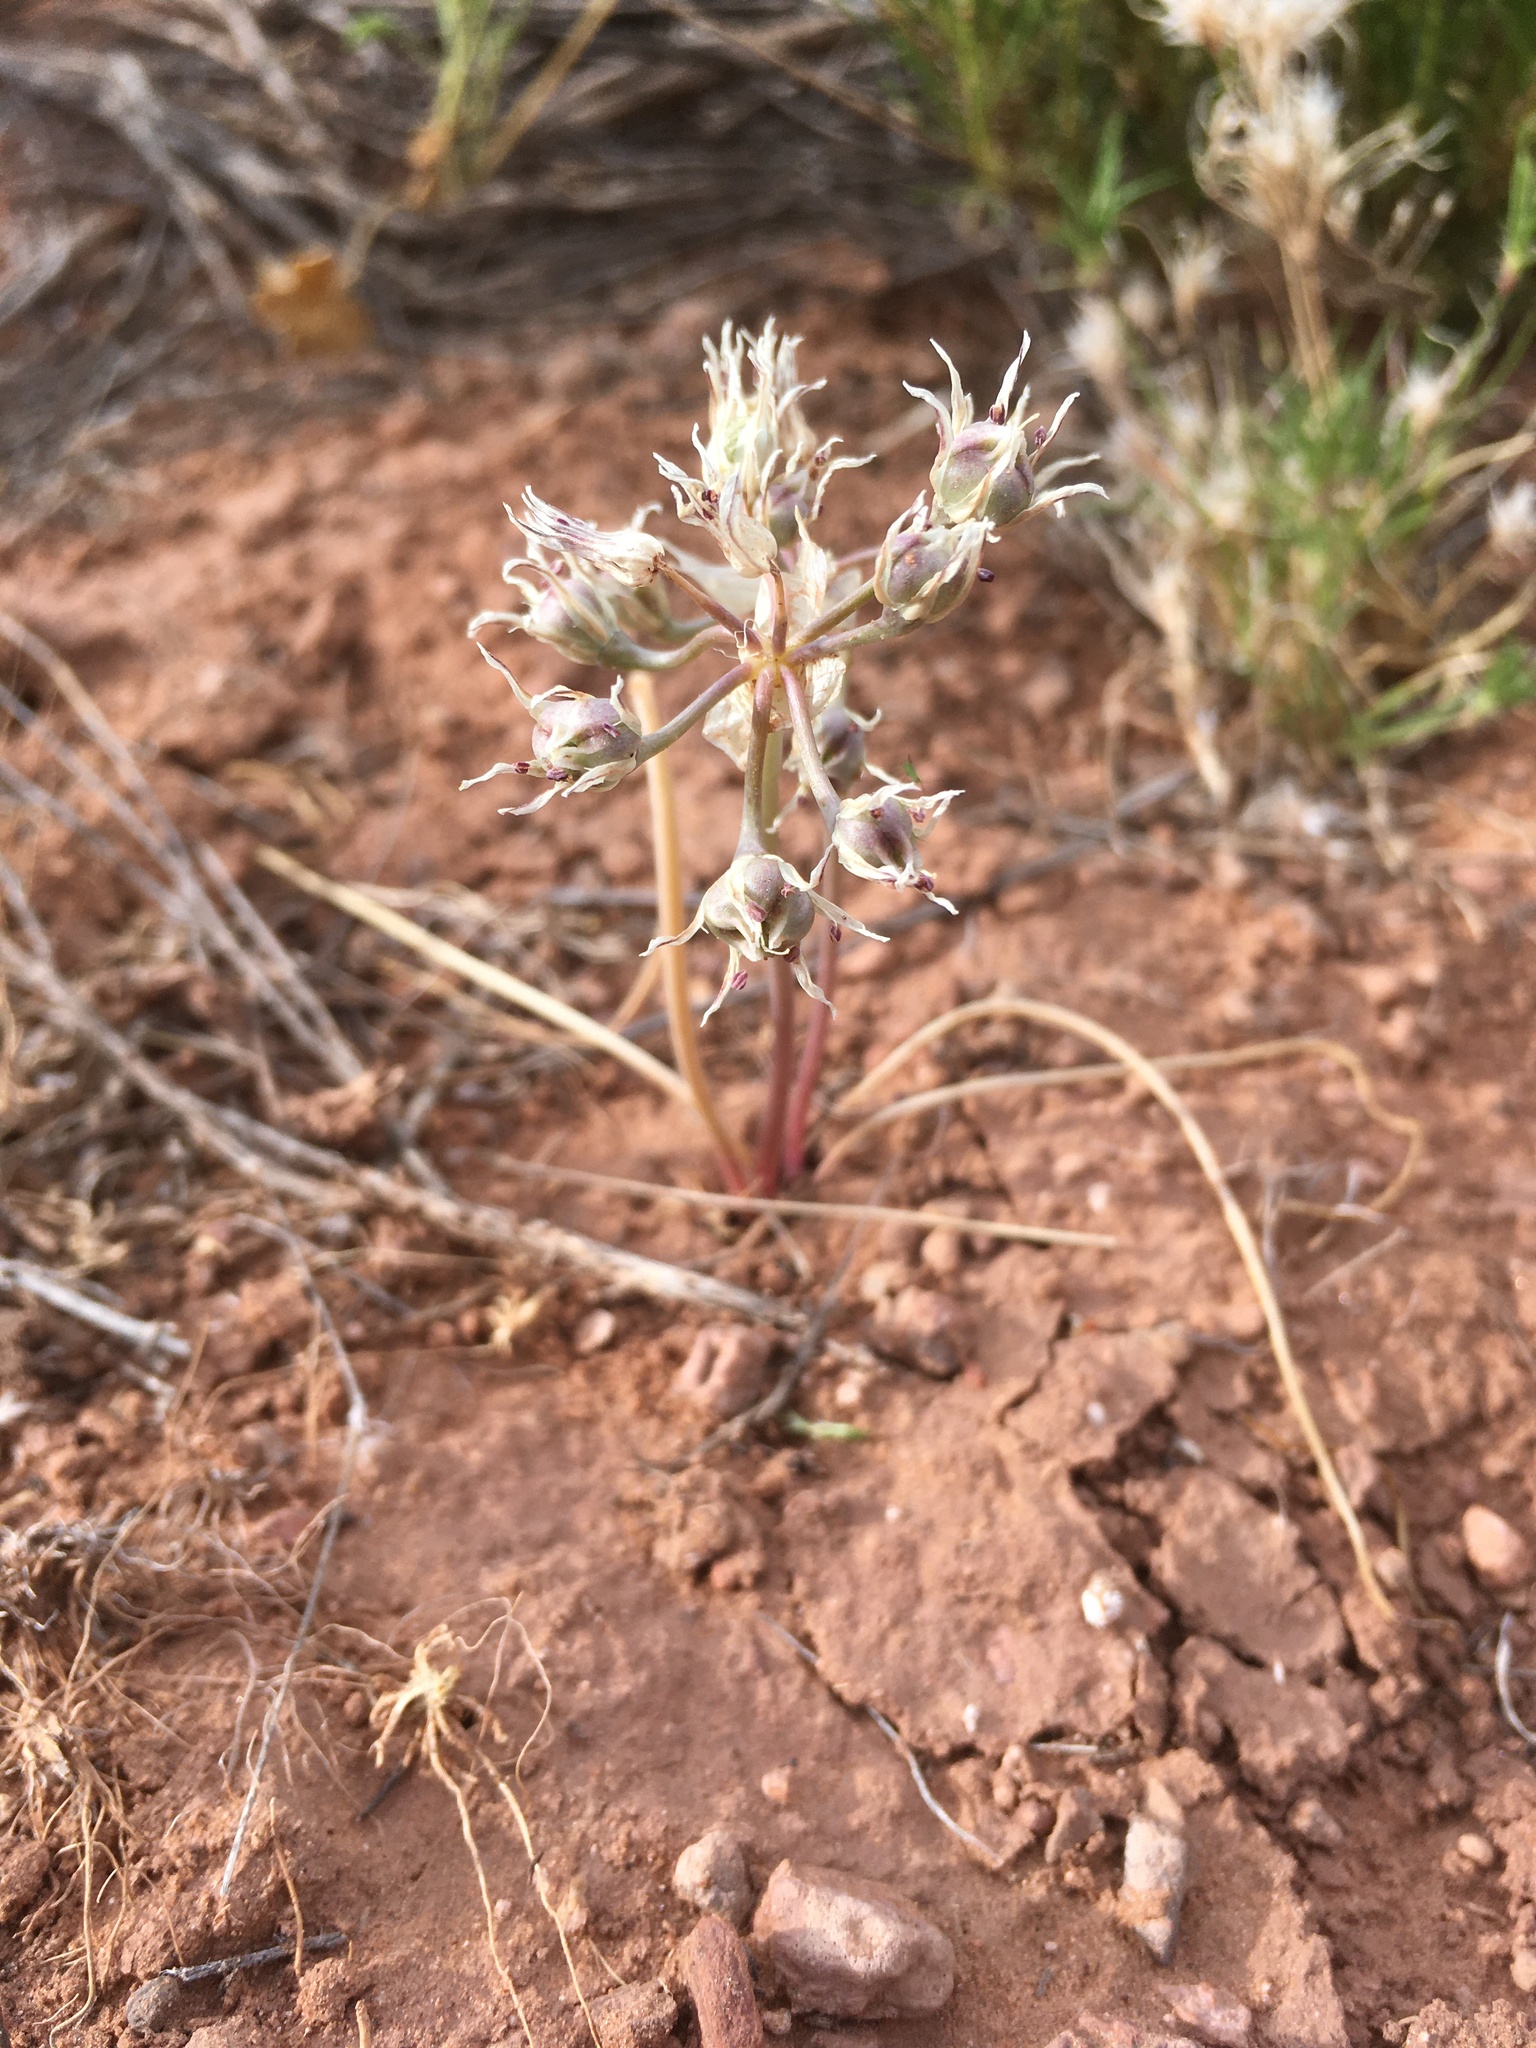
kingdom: Plantae
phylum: Tracheophyta
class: Liliopsida
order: Asparagales
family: Amaryllidaceae
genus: Allium
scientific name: Allium macropetalum
